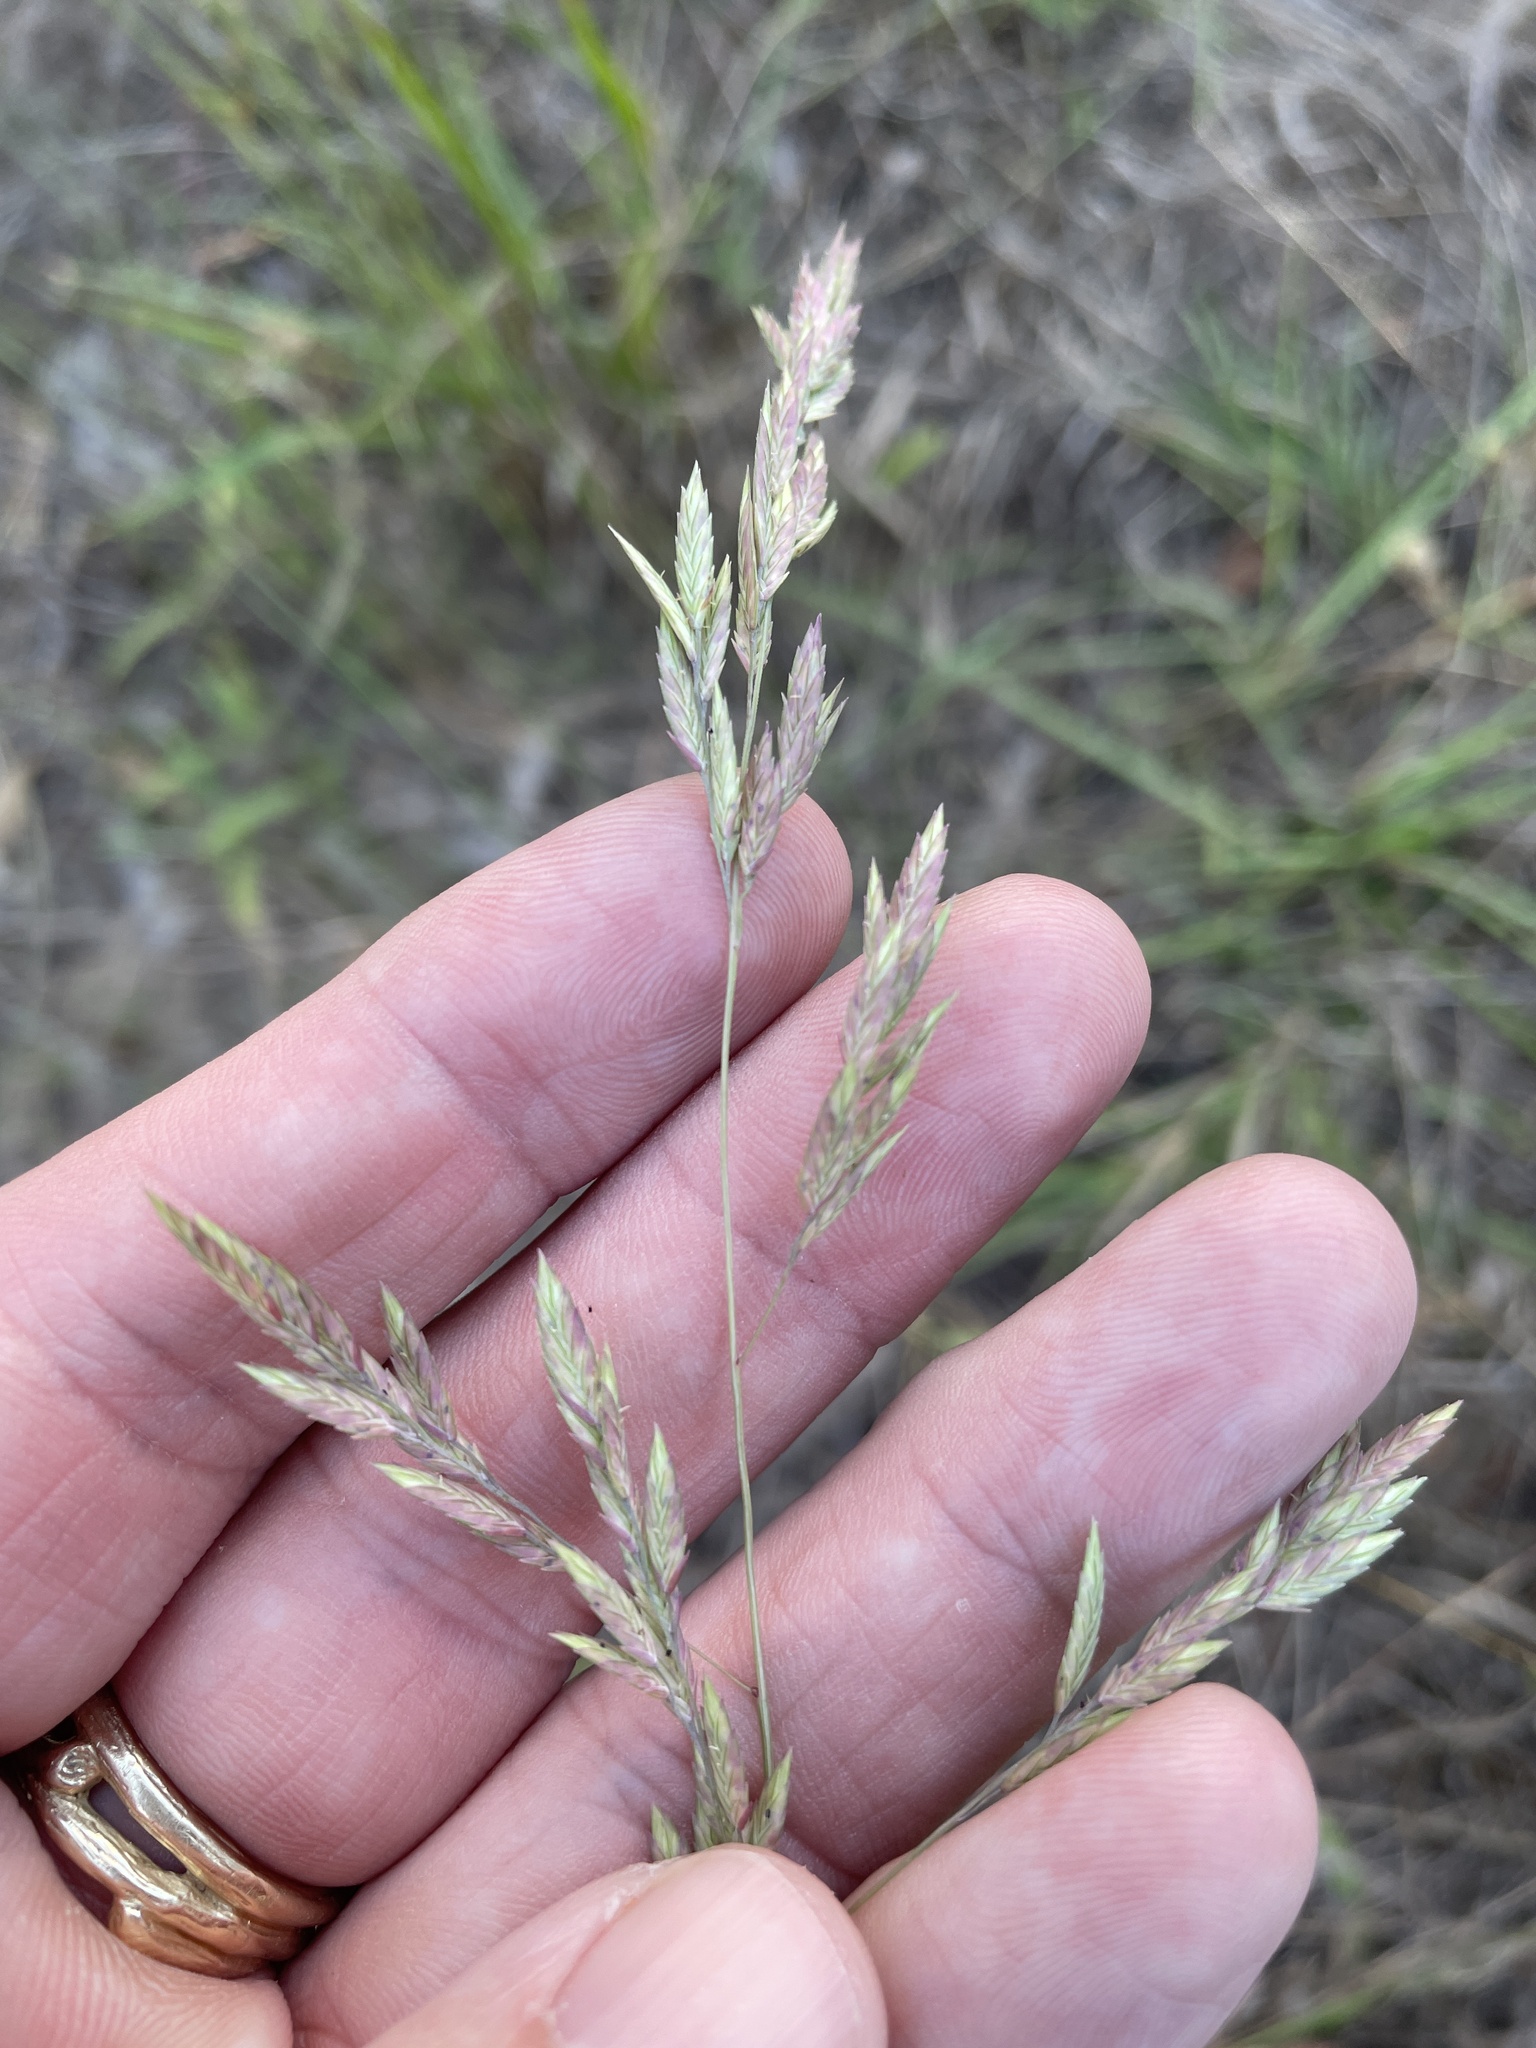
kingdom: Plantae
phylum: Tracheophyta
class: Liliopsida
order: Poales
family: Poaceae
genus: Eragrostis
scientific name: Eragrostis secundiflora
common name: Red love grass
